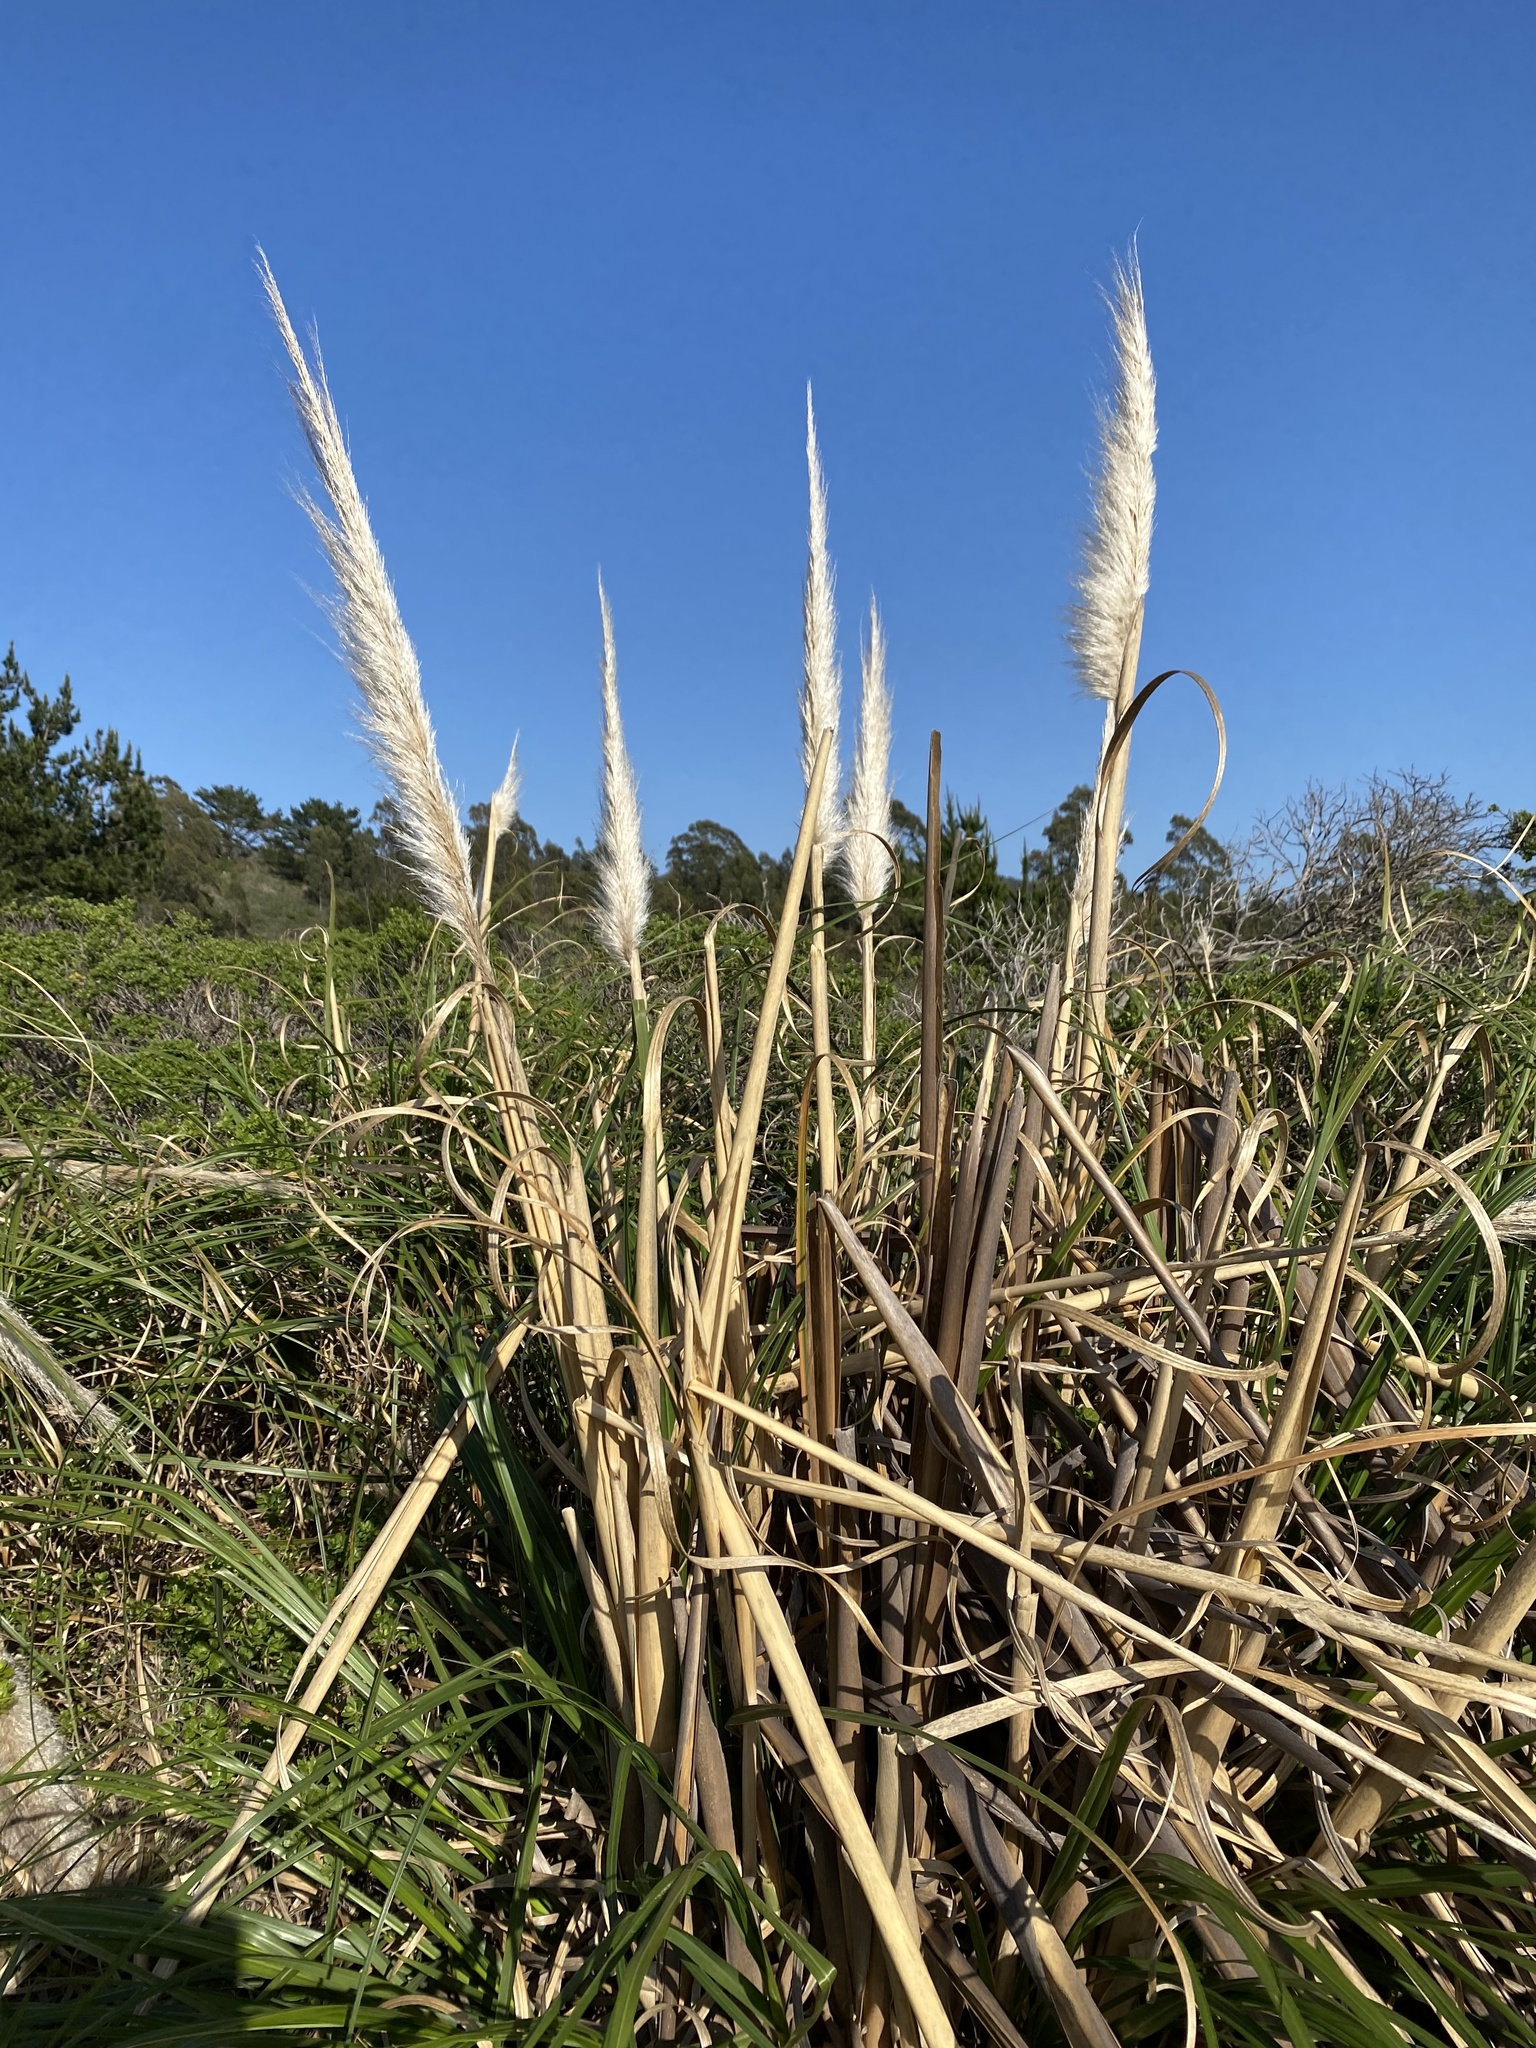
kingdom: Plantae
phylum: Tracheophyta
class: Liliopsida
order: Poales
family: Poaceae
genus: Cortaderia
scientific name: Cortaderia selloana
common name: Uruguayan pampas grass
